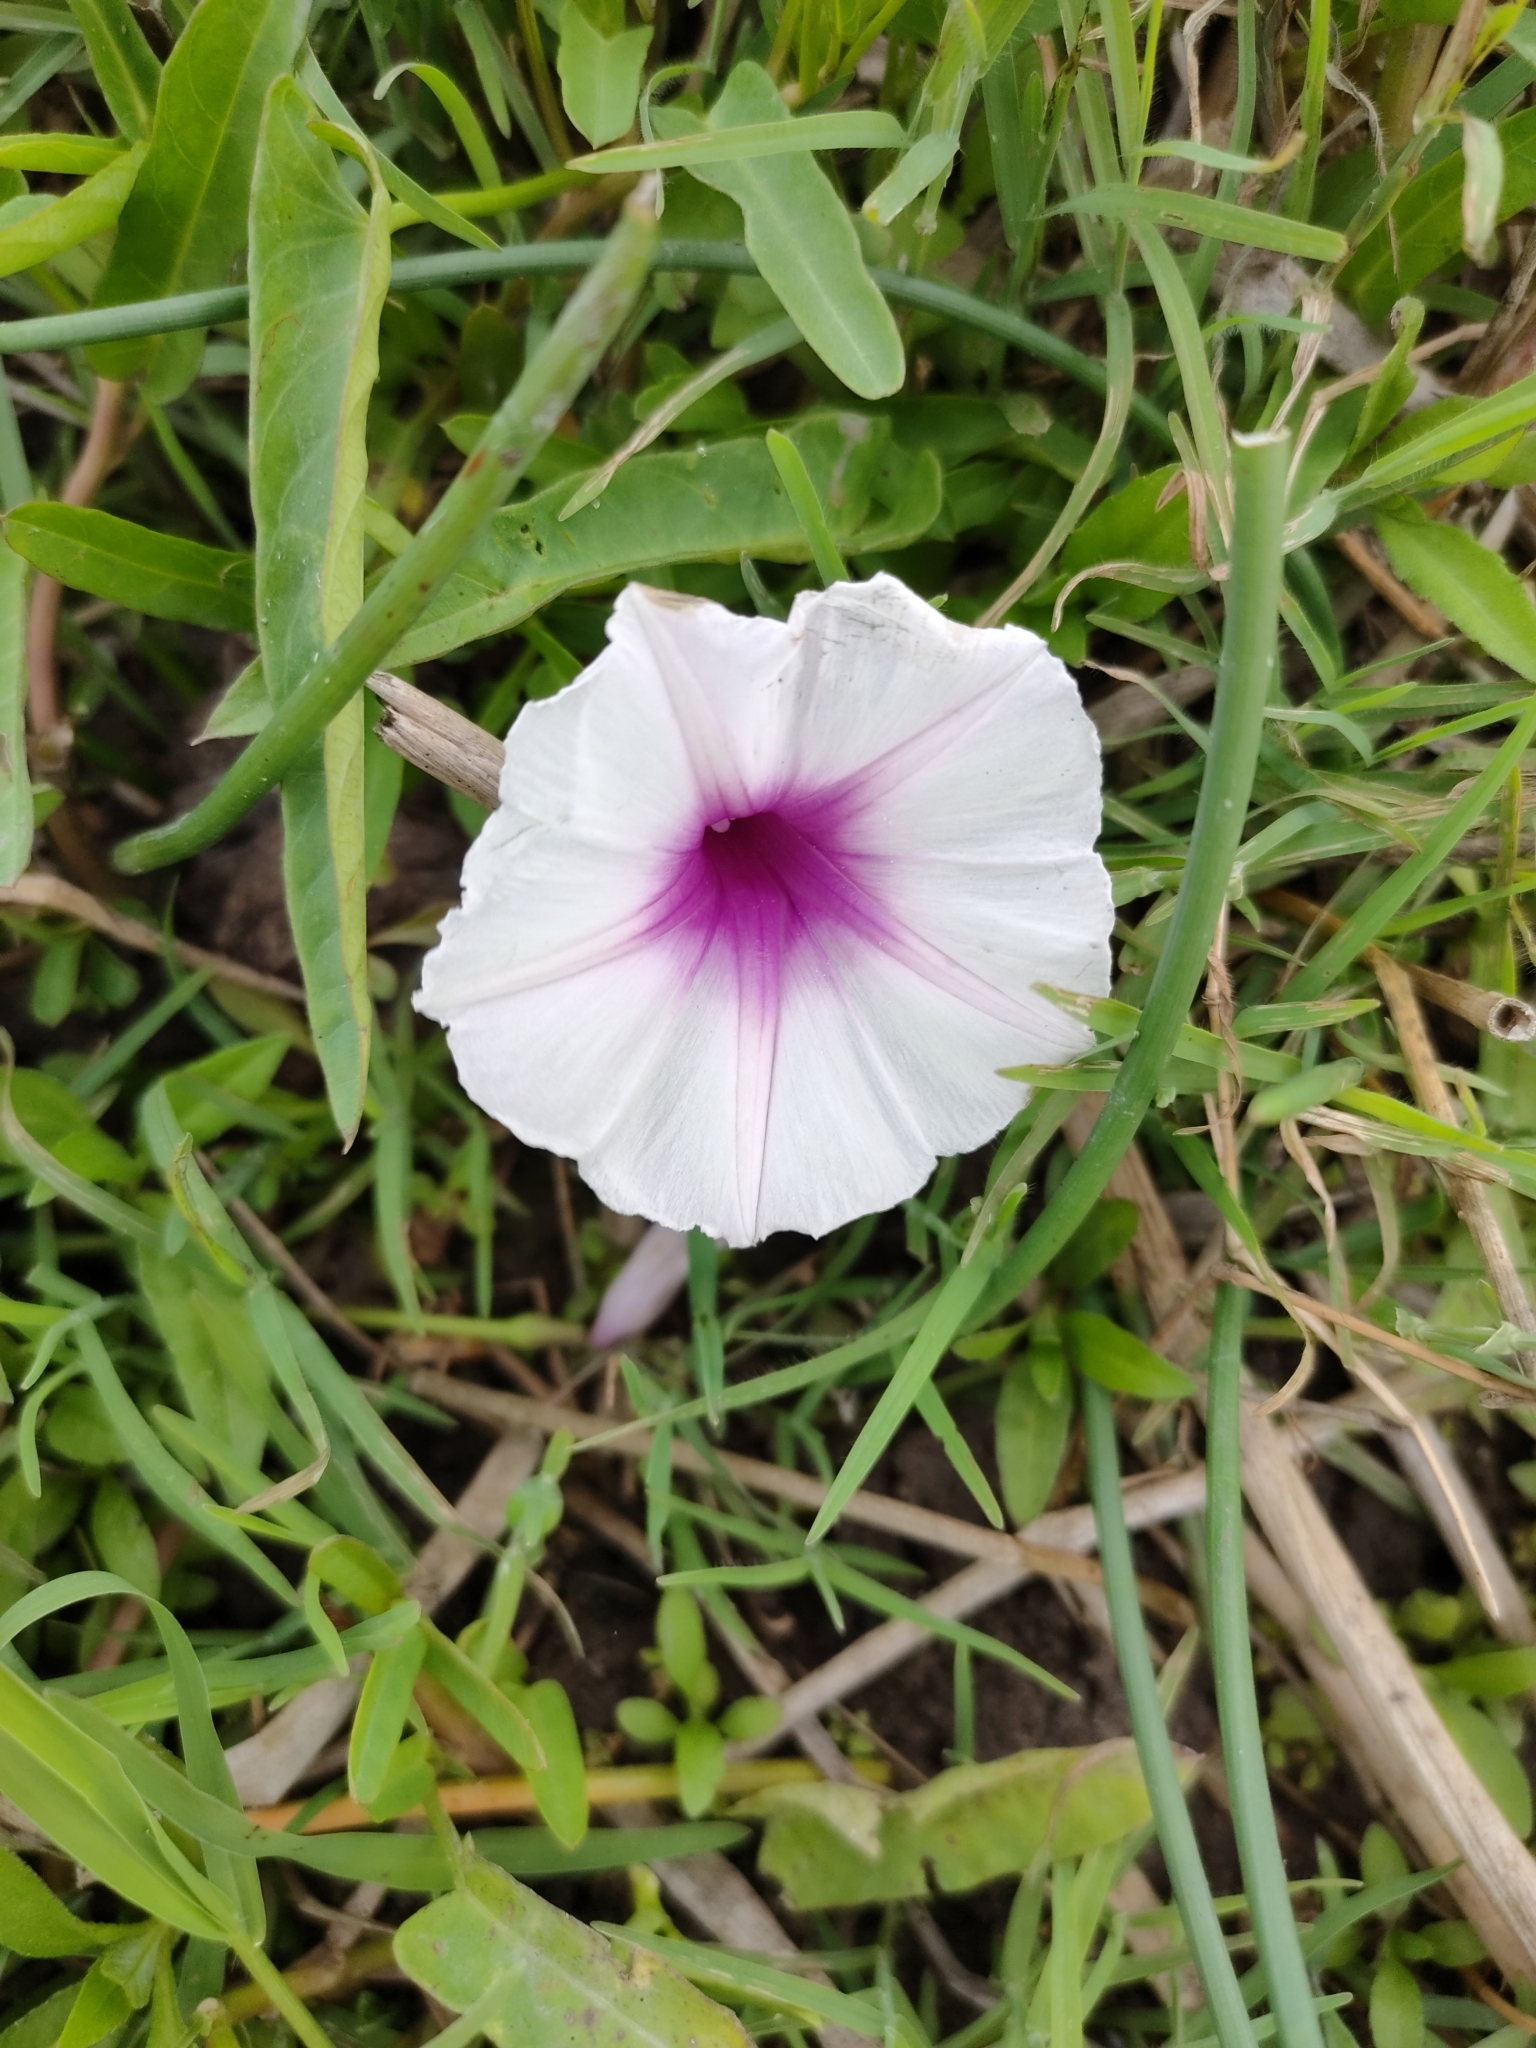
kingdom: Plantae
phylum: Tracheophyta
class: Magnoliopsida
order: Solanales
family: Convolvulaceae
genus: Ipomoea
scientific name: Ipomoea aquatica
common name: Swamp morning-glory
